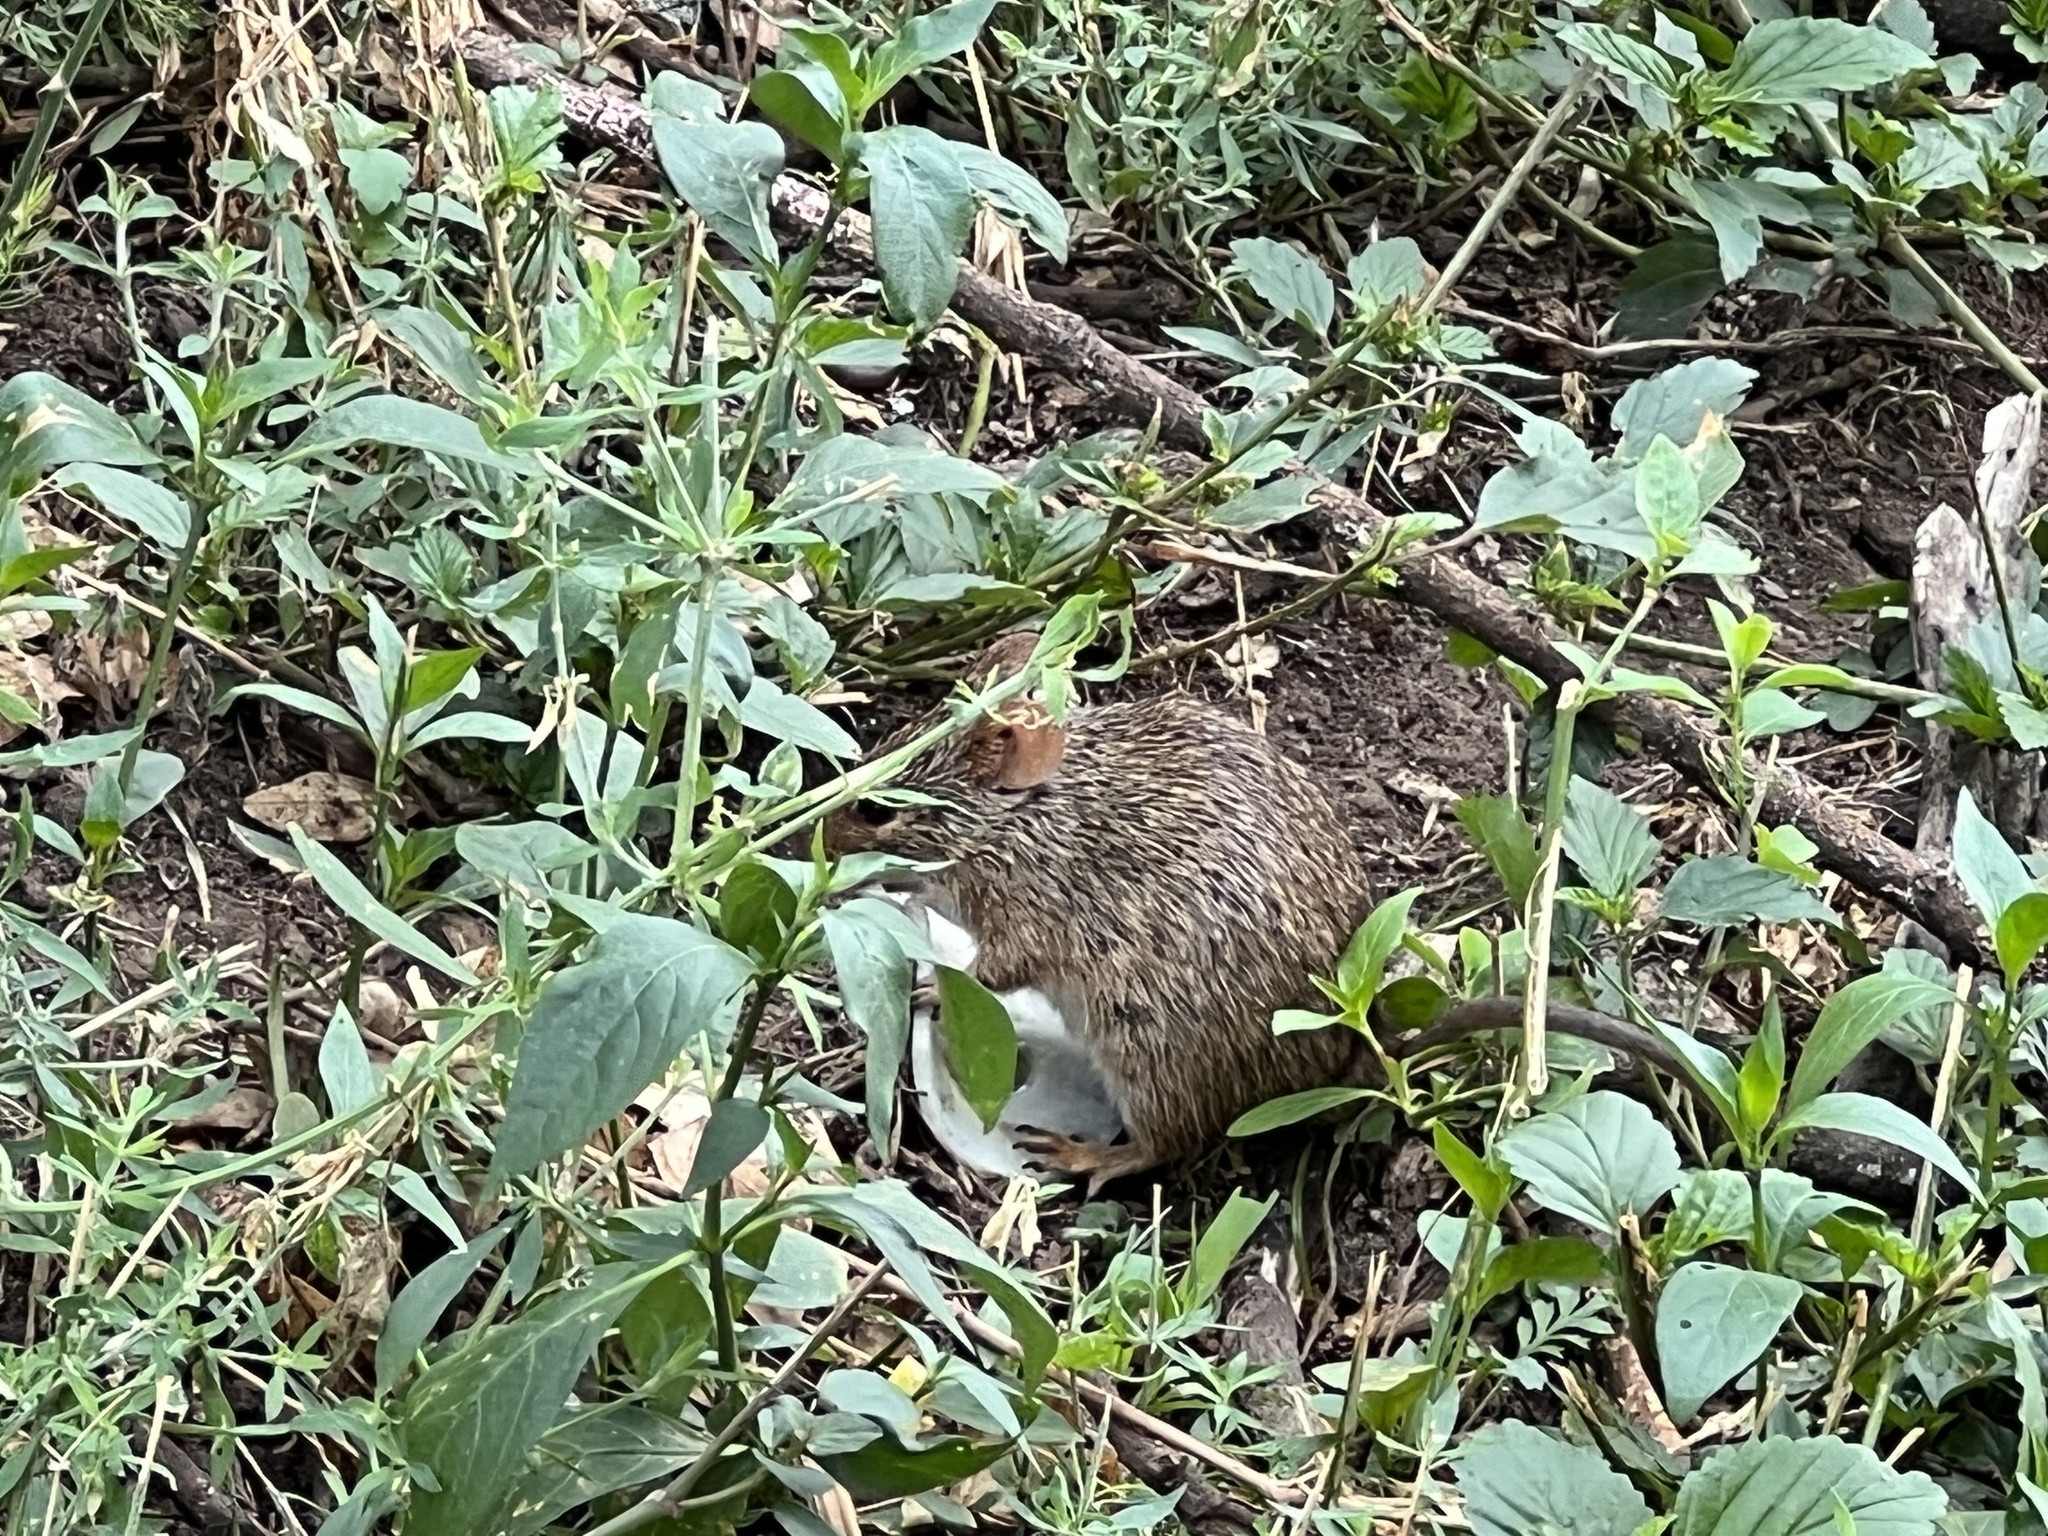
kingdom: Animalia
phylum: Chordata
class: Mammalia
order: Rodentia
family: Muridae
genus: Arvicanthis
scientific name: Arvicanthis niloticus
